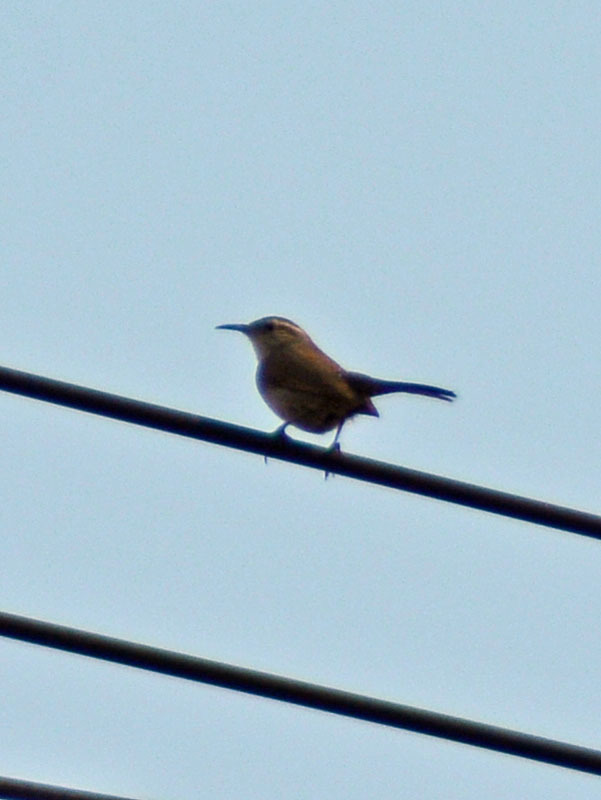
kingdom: Animalia
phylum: Chordata
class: Aves
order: Passeriformes
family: Troglodytidae
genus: Thryomanes
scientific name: Thryomanes bewickii
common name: Bewick's wren
